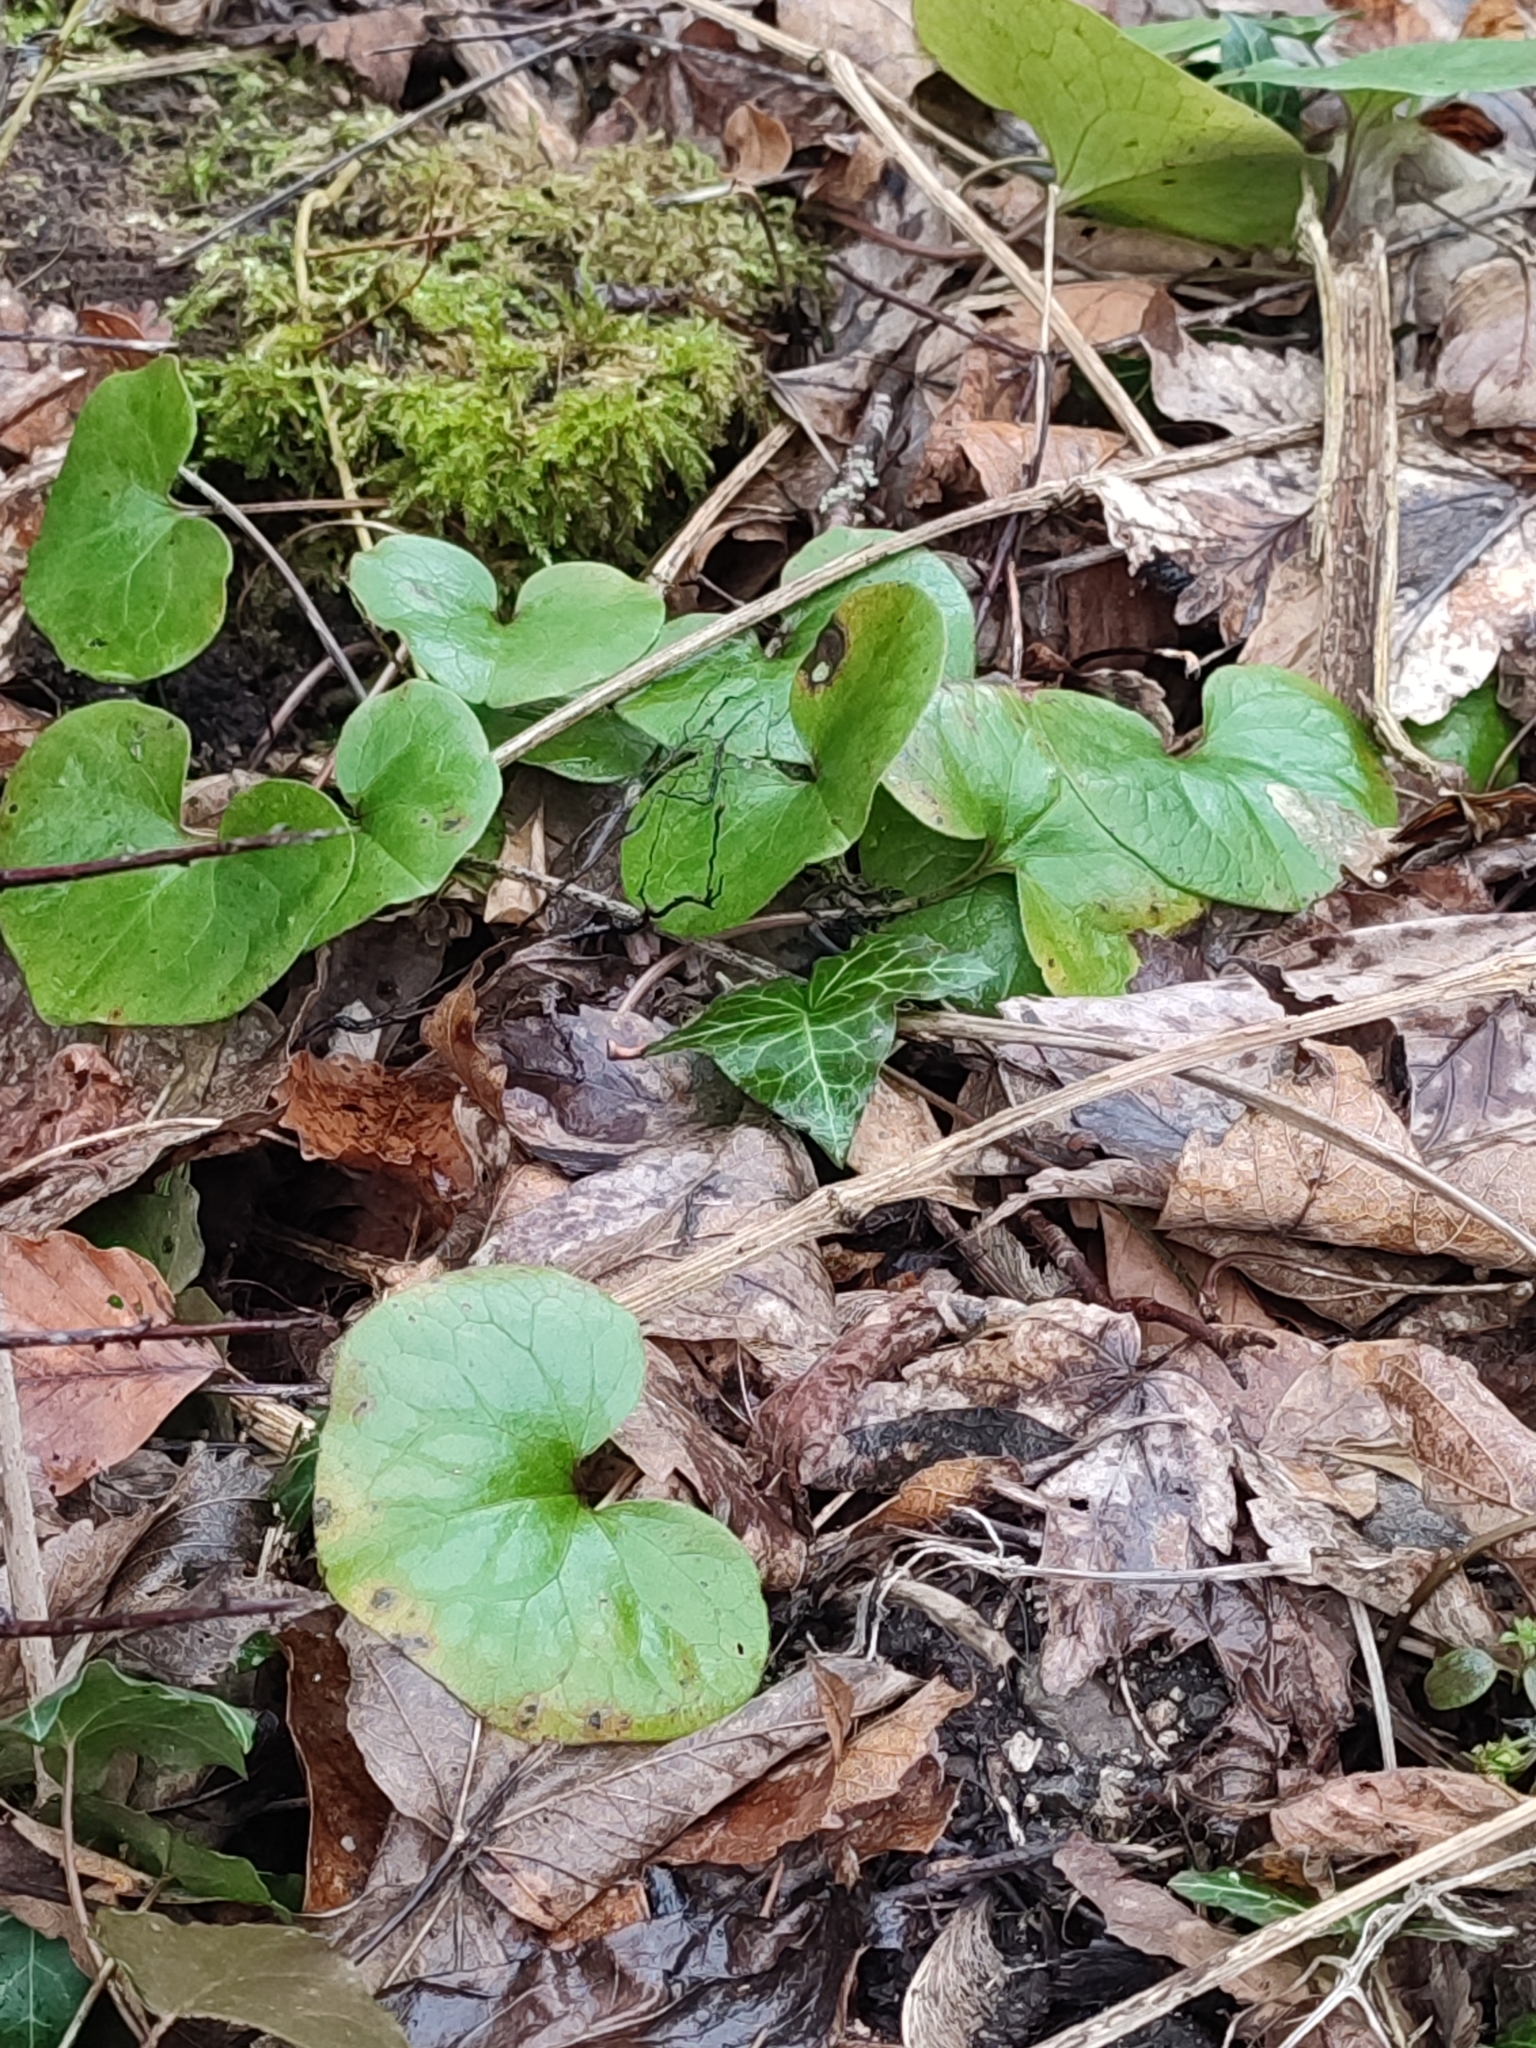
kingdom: Plantae
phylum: Tracheophyta
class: Magnoliopsida
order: Piperales
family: Aristolochiaceae
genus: Asarum
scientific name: Asarum europaeum
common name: Asarabacca
